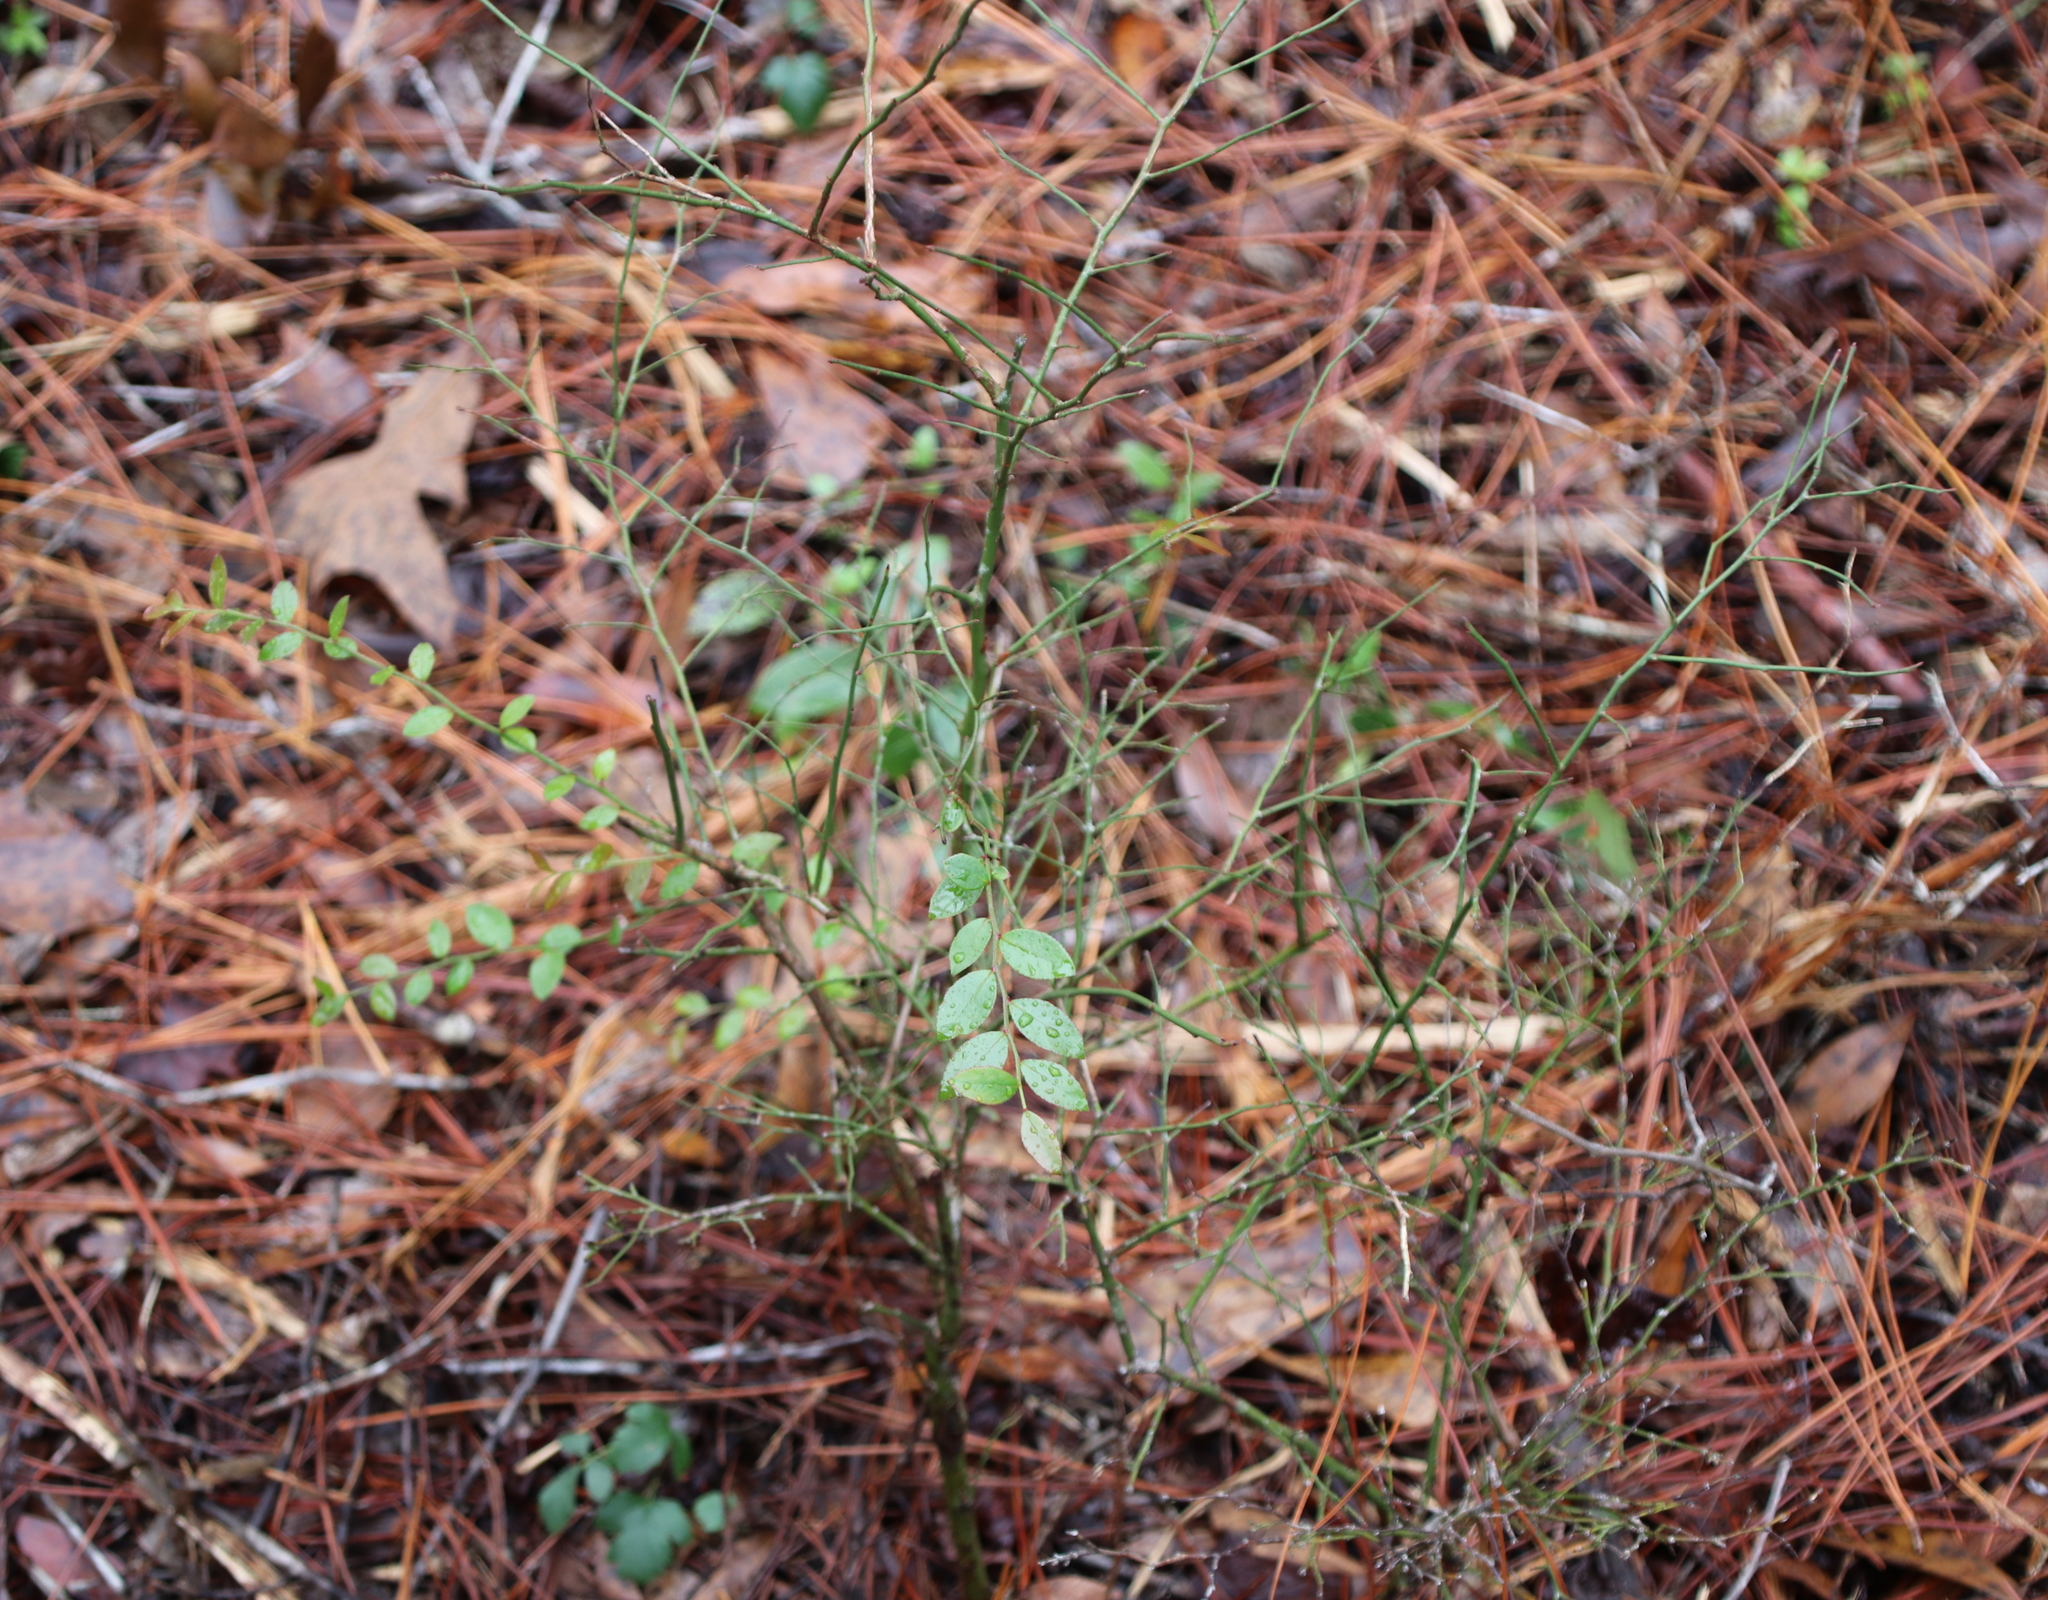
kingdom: Plantae
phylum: Tracheophyta
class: Magnoliopsida
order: Ericales
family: Ericaceae
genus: Vaccinium
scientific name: Vaccinium corymbosum
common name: Blueberry
